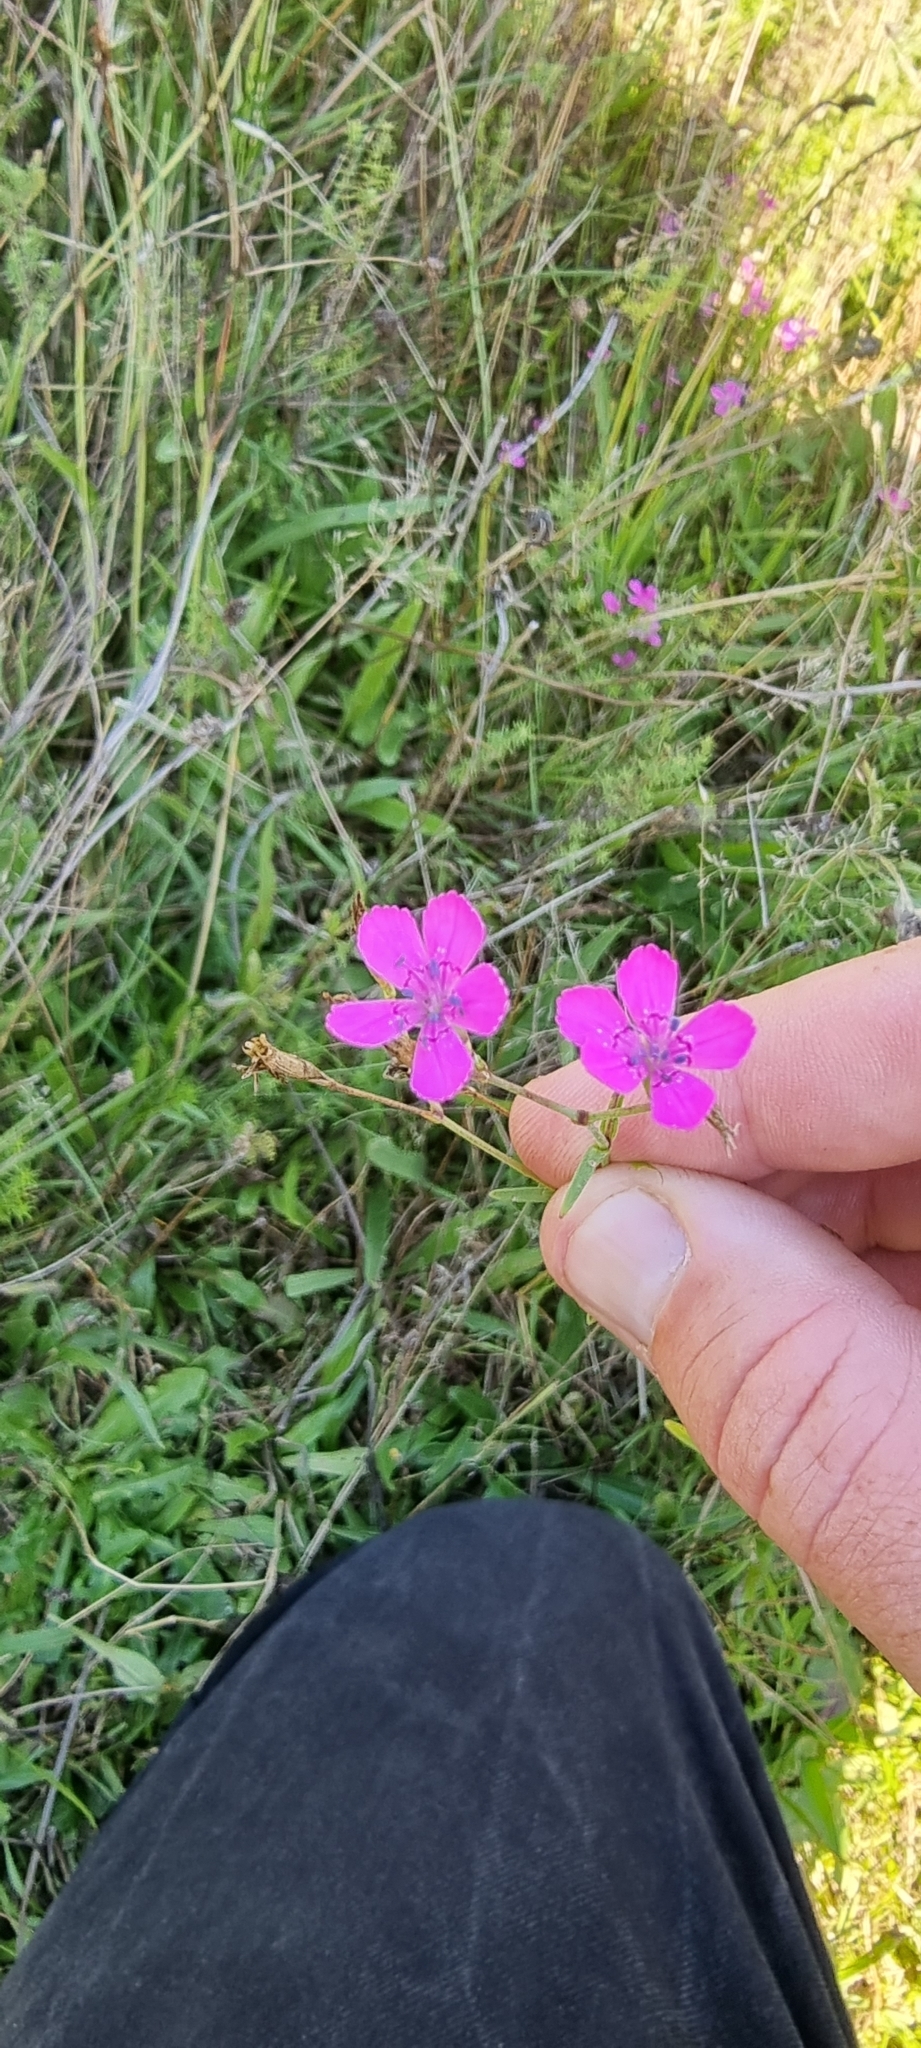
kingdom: Plantae
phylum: Tracheophyta
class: Magnoliopsida
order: Caryophyllales
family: Caryophyllaceae
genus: Dianthus
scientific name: Dianthus deltoides
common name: Maiden pink
